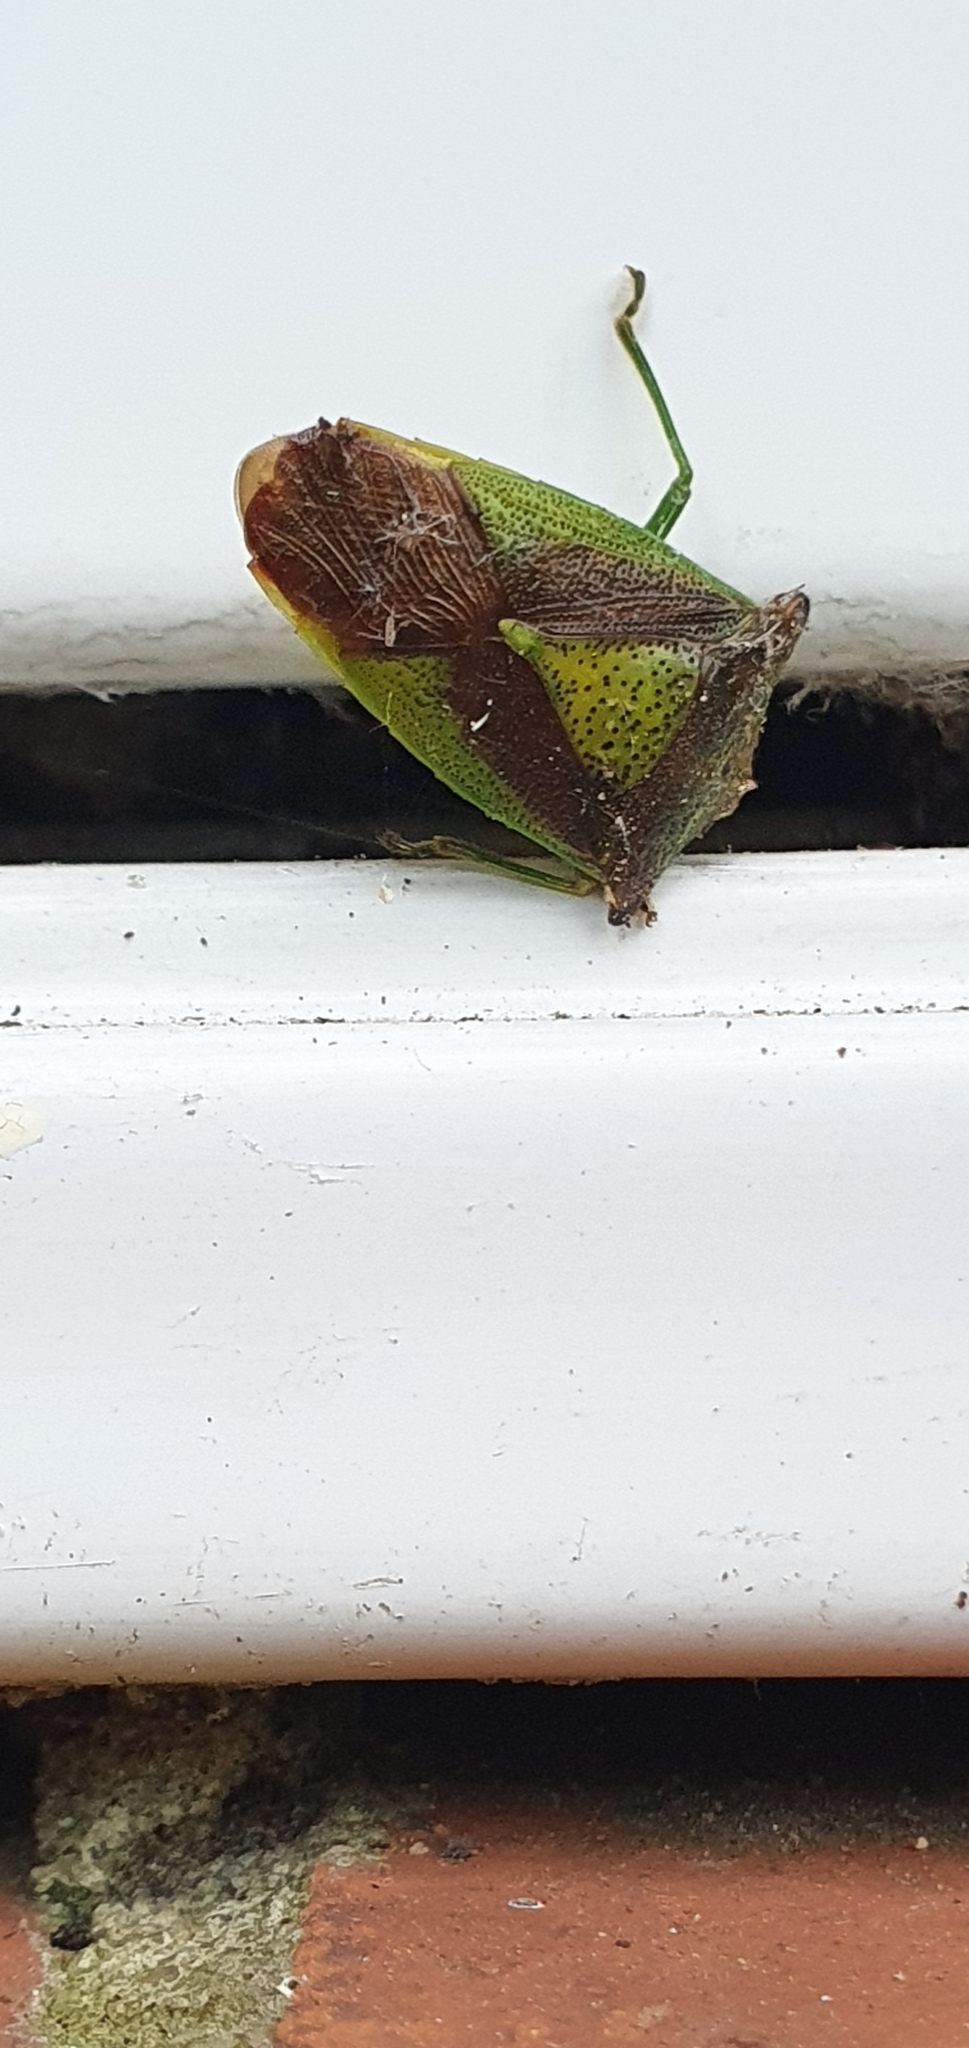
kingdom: Animalia
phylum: Arthropoda
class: Insecta
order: Hemiptera
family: Acanthosomatidae
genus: Acanthosoma
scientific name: Acanthosoma haemorrhoidale
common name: Hawthorn shieldbug
